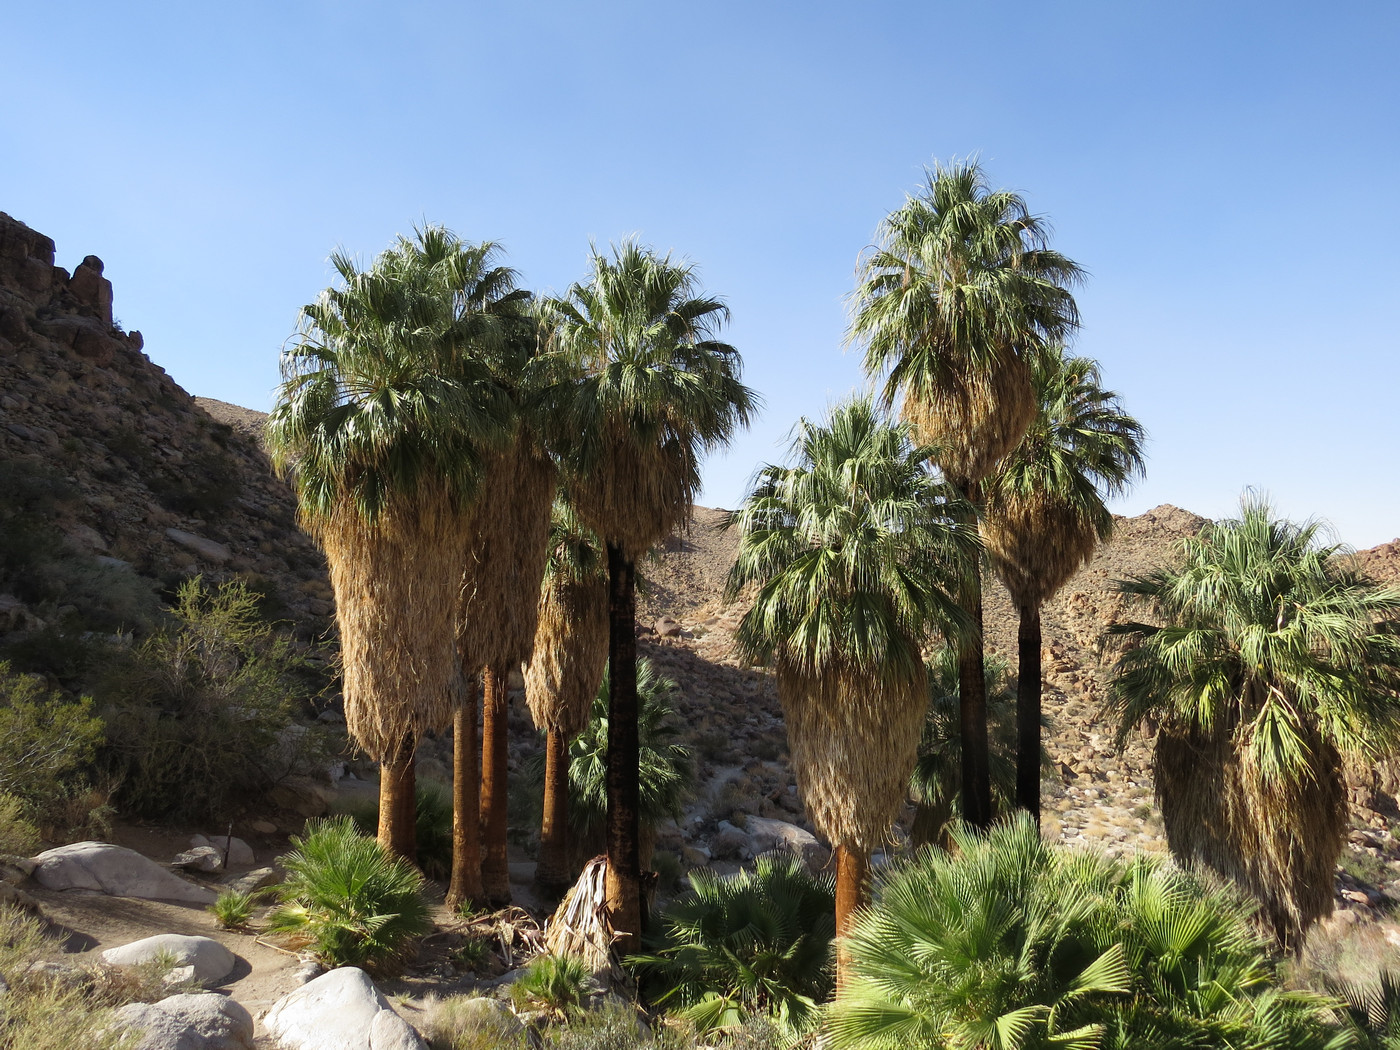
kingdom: Plantae
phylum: Tracheophyta
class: Liliopsida
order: Arecales
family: Arecaceae
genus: Washingtonia
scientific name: Washingtonia filifera
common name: California fan palm
